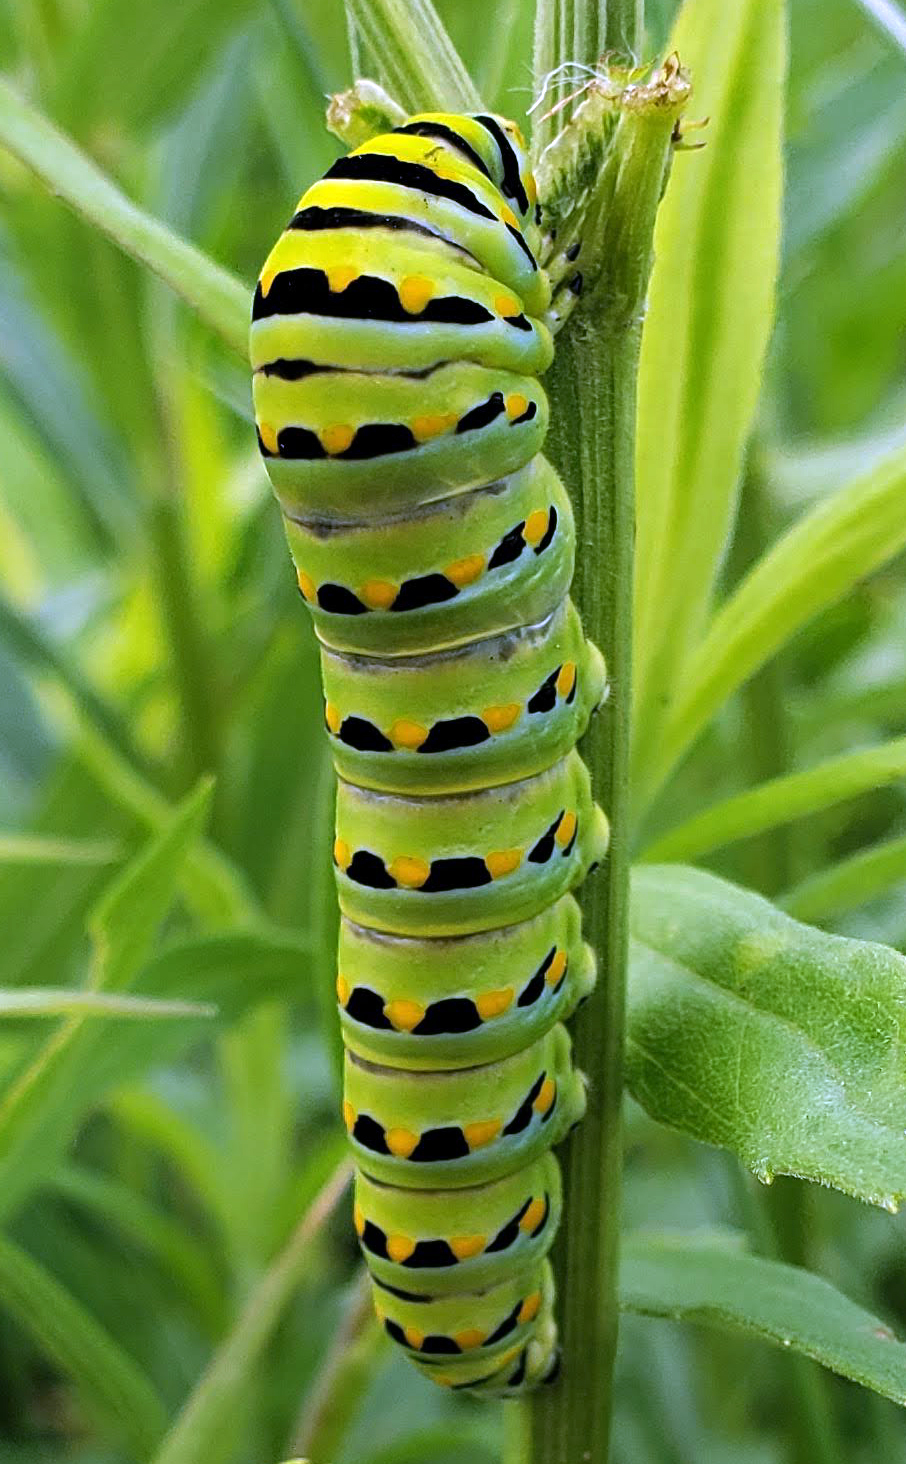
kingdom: Animalia
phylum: Arthropoda
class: Insecta
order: Lepidoptera
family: Papilionidae
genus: Papilio
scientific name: Papilio polyxenes
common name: Black swallowtail
